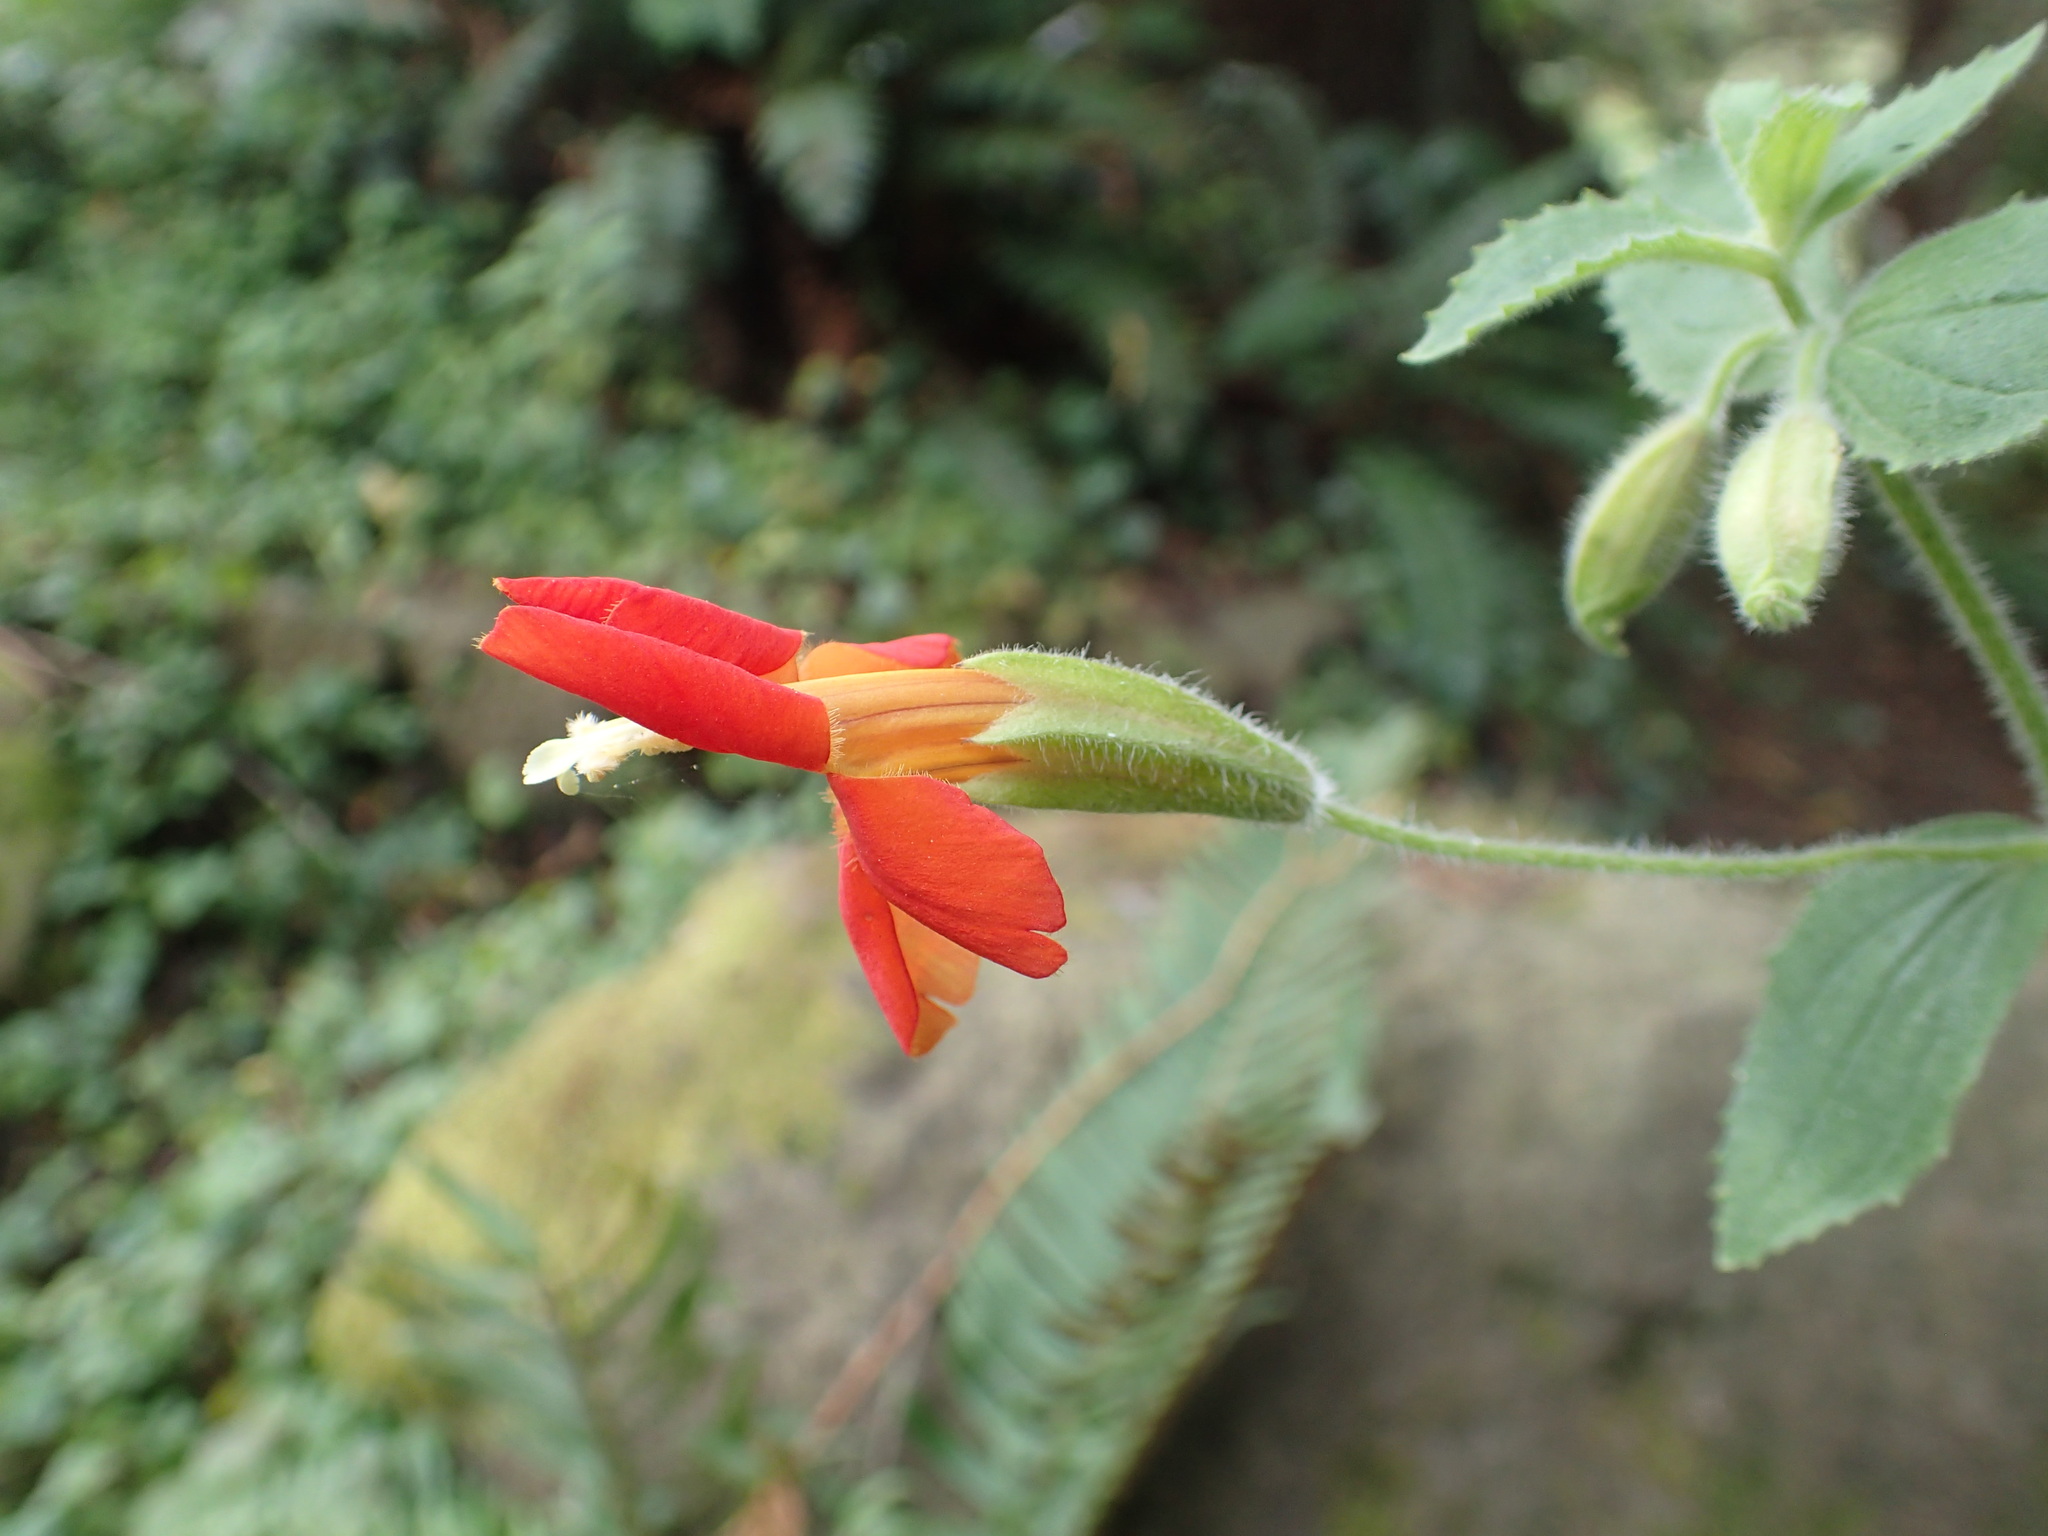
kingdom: Plantae
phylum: Tracheophyta
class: Magnoliopsida
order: Lamiales
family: Phrymaceae
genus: Erythranthe
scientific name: Erythranthe cardinalis
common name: Scarlet monkey-flower
